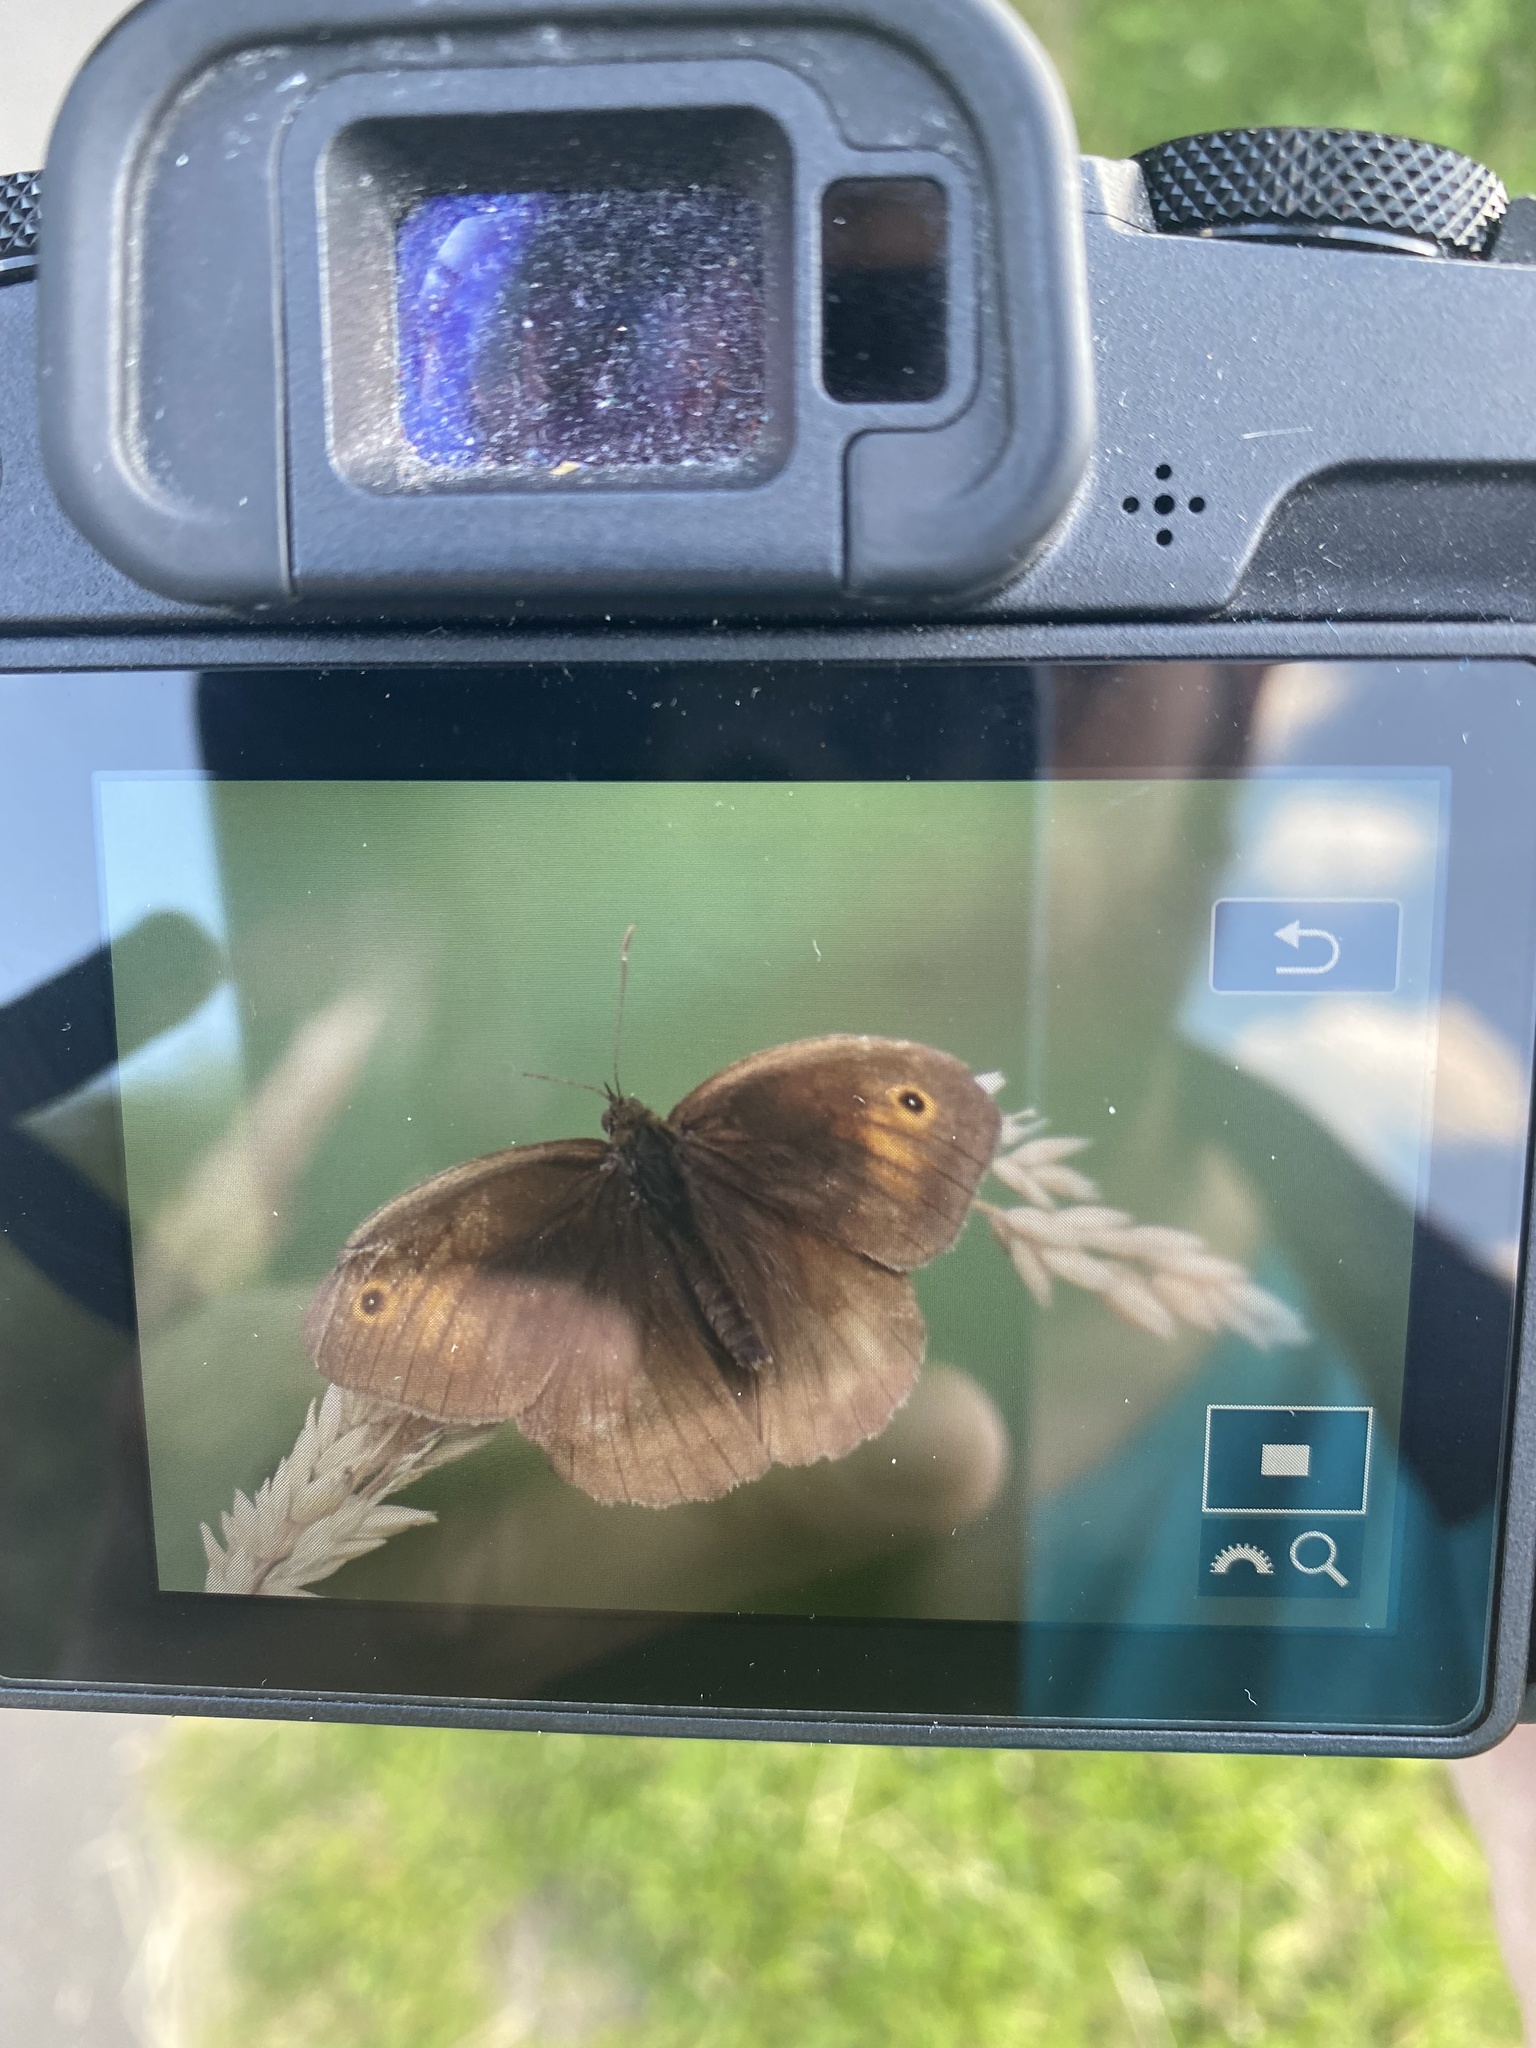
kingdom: Animalia
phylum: Arthropoda
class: Insecta
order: Lepidoptera
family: Nymphalidae
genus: Maniola
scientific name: Maniola jurtina
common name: Meadow brown
